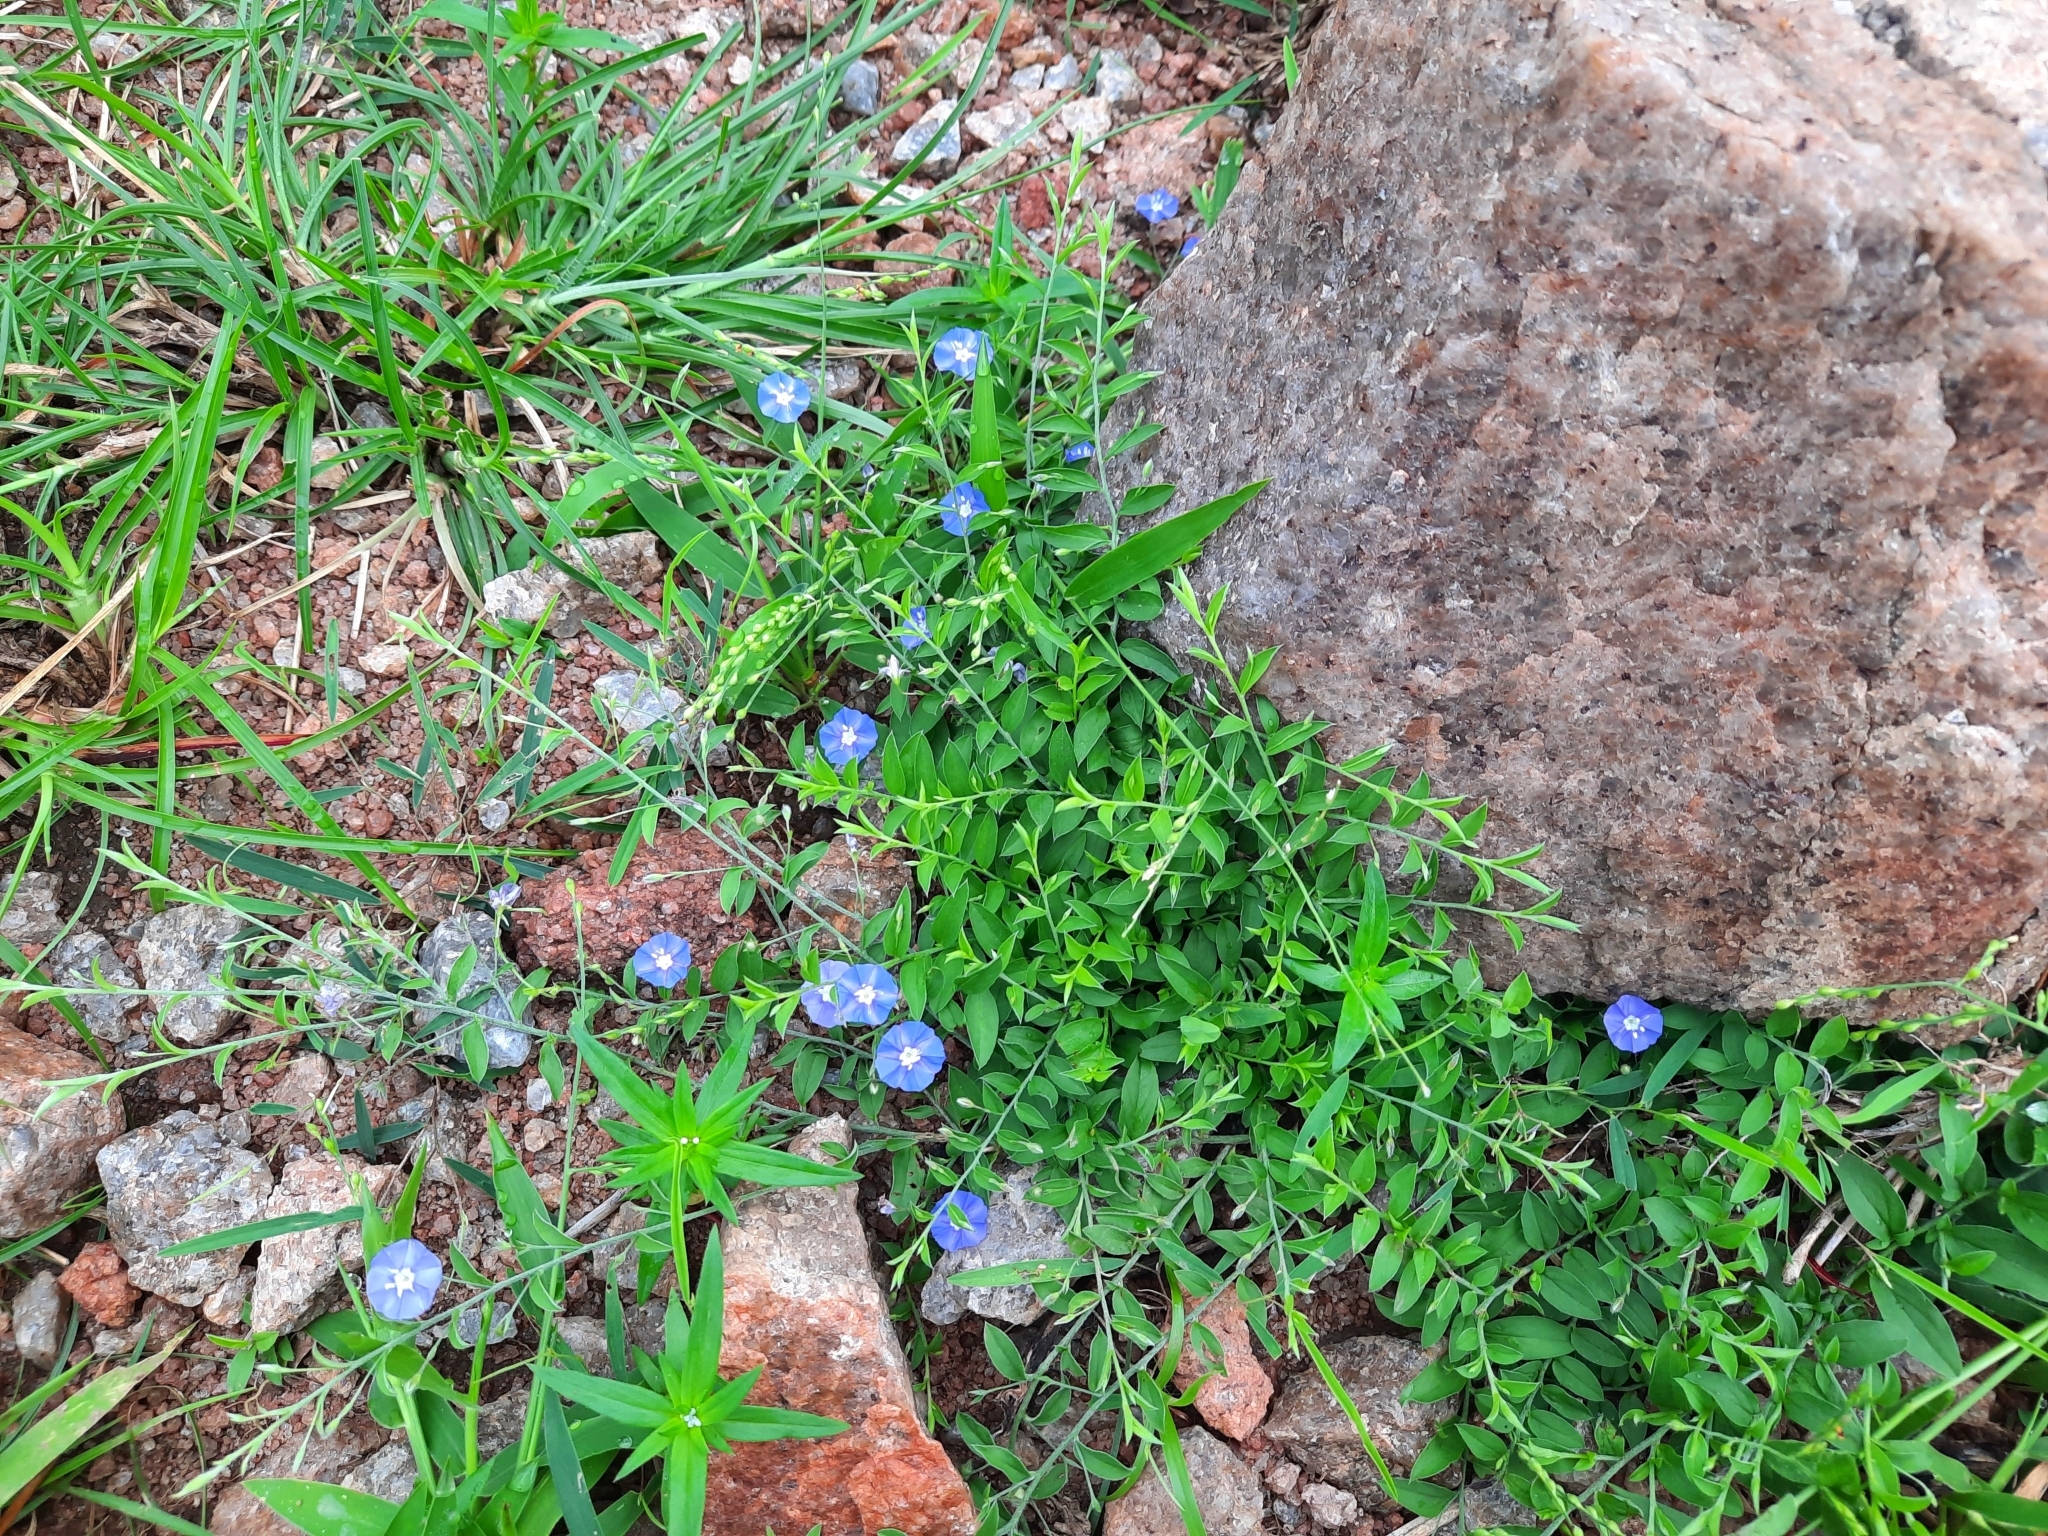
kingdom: Plantae
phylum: Tracheophyta
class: Magnoliopsida
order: Solanales
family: Convolvulaceae
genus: Evolvulus
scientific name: Evolvulus alsinoides
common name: Slender dwarf morning-glory
